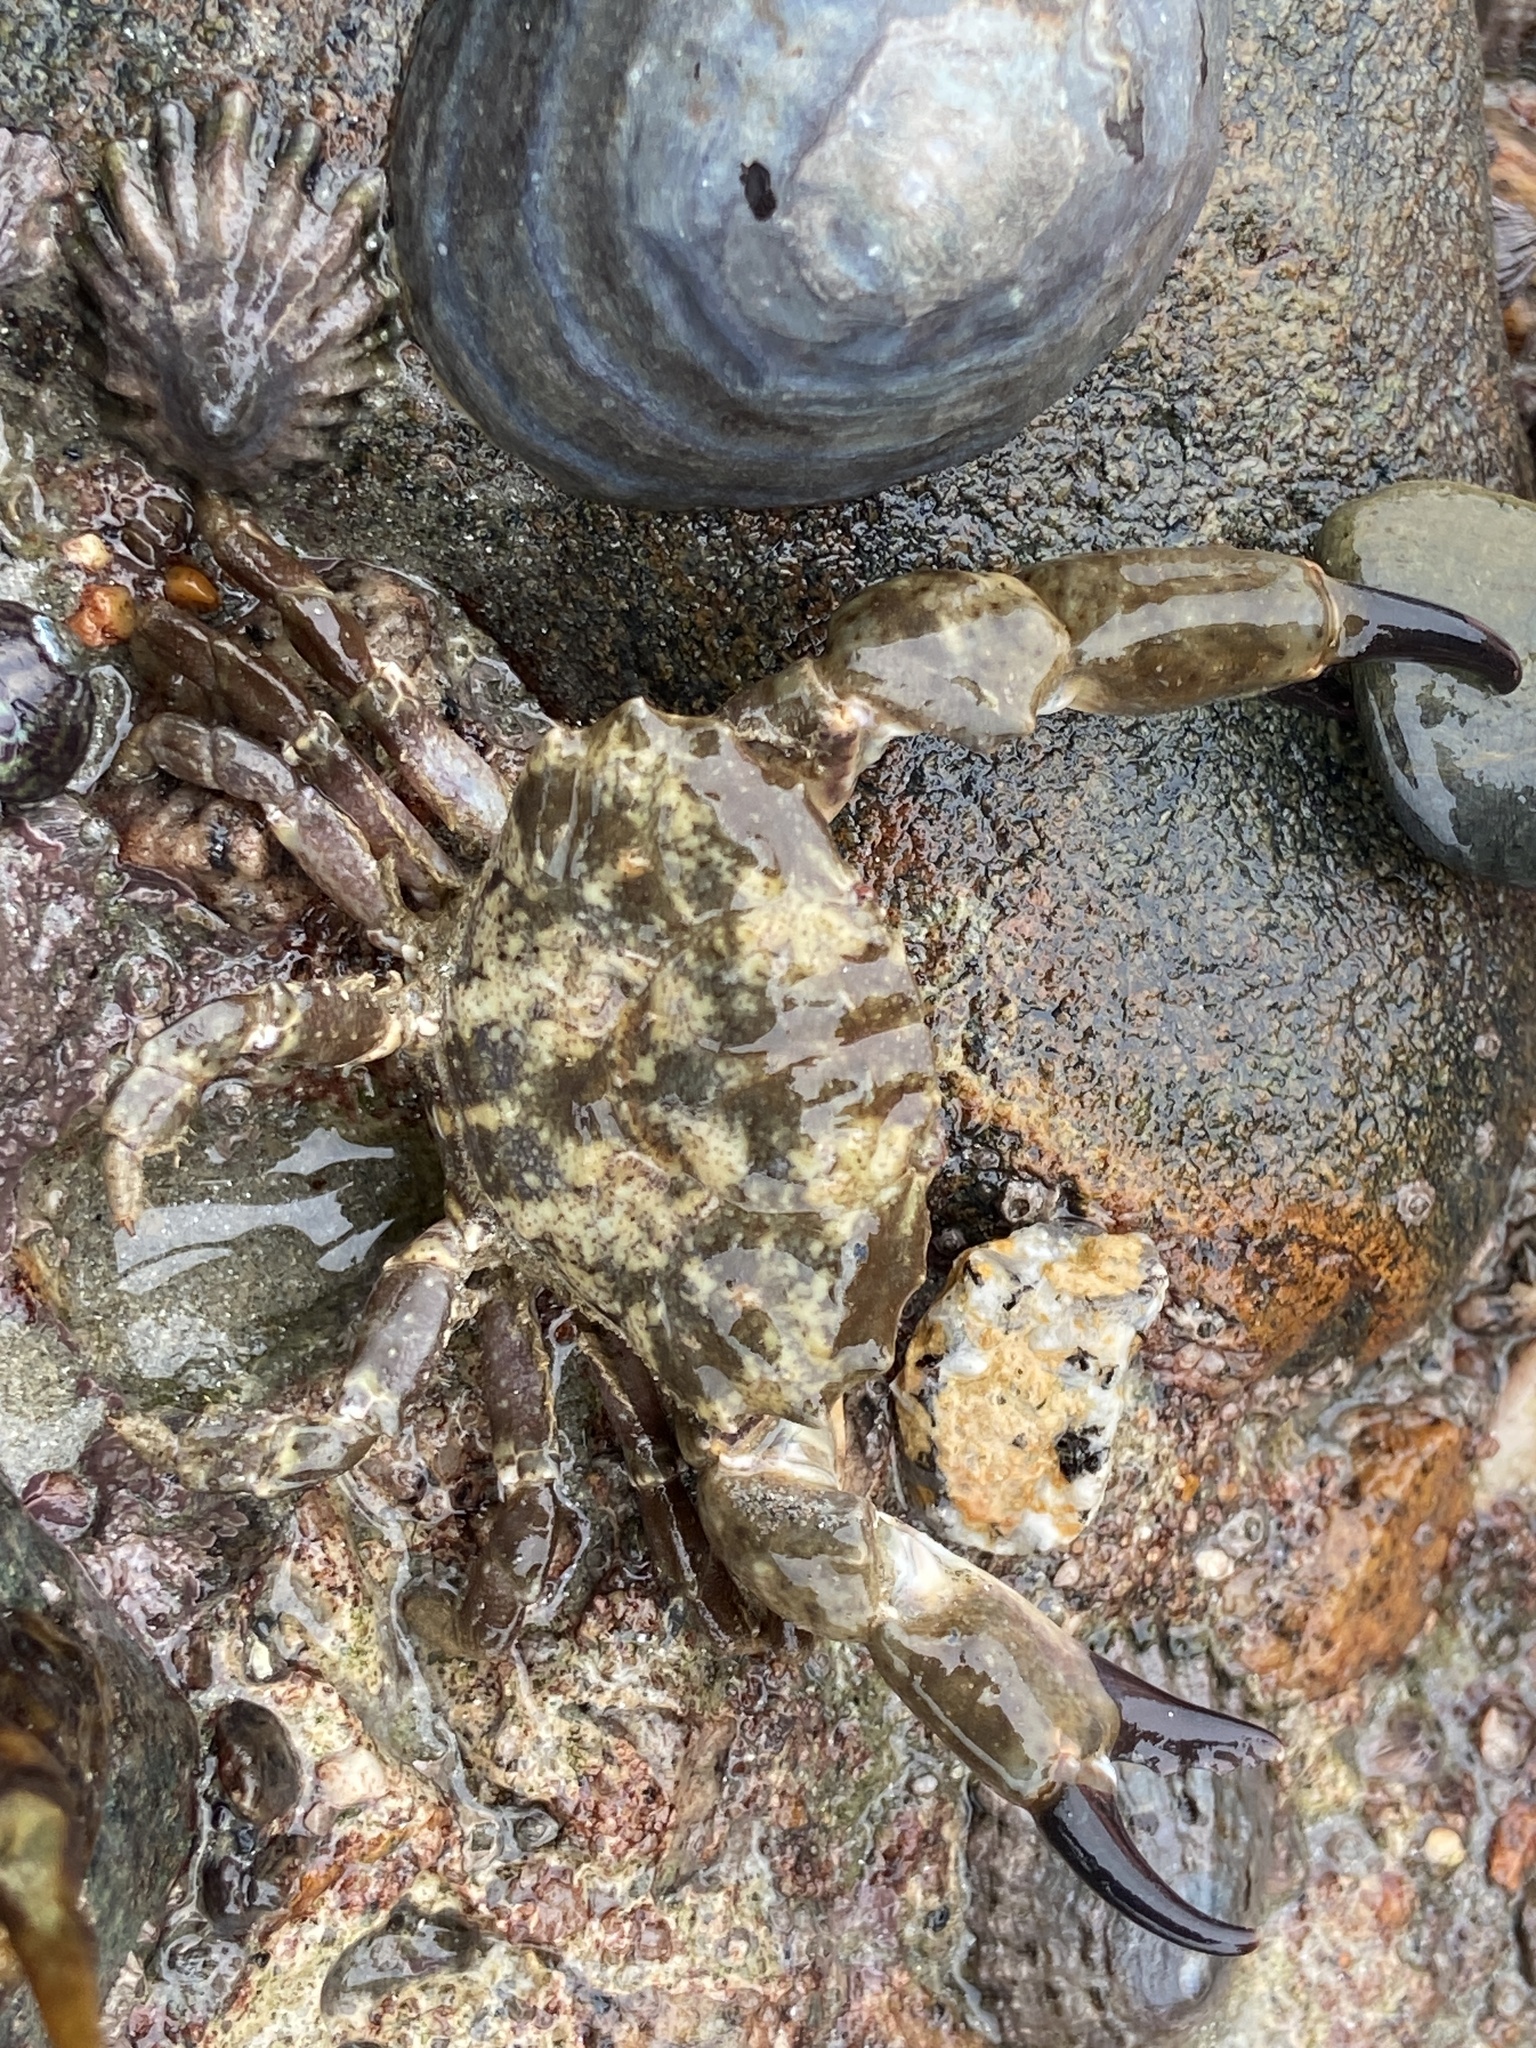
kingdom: Animalia
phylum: Arthropoda
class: Malacostraca
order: Decapoda
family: Xanthidae
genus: Xantho
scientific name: Xantho hydrophilus
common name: Montagu's crab
